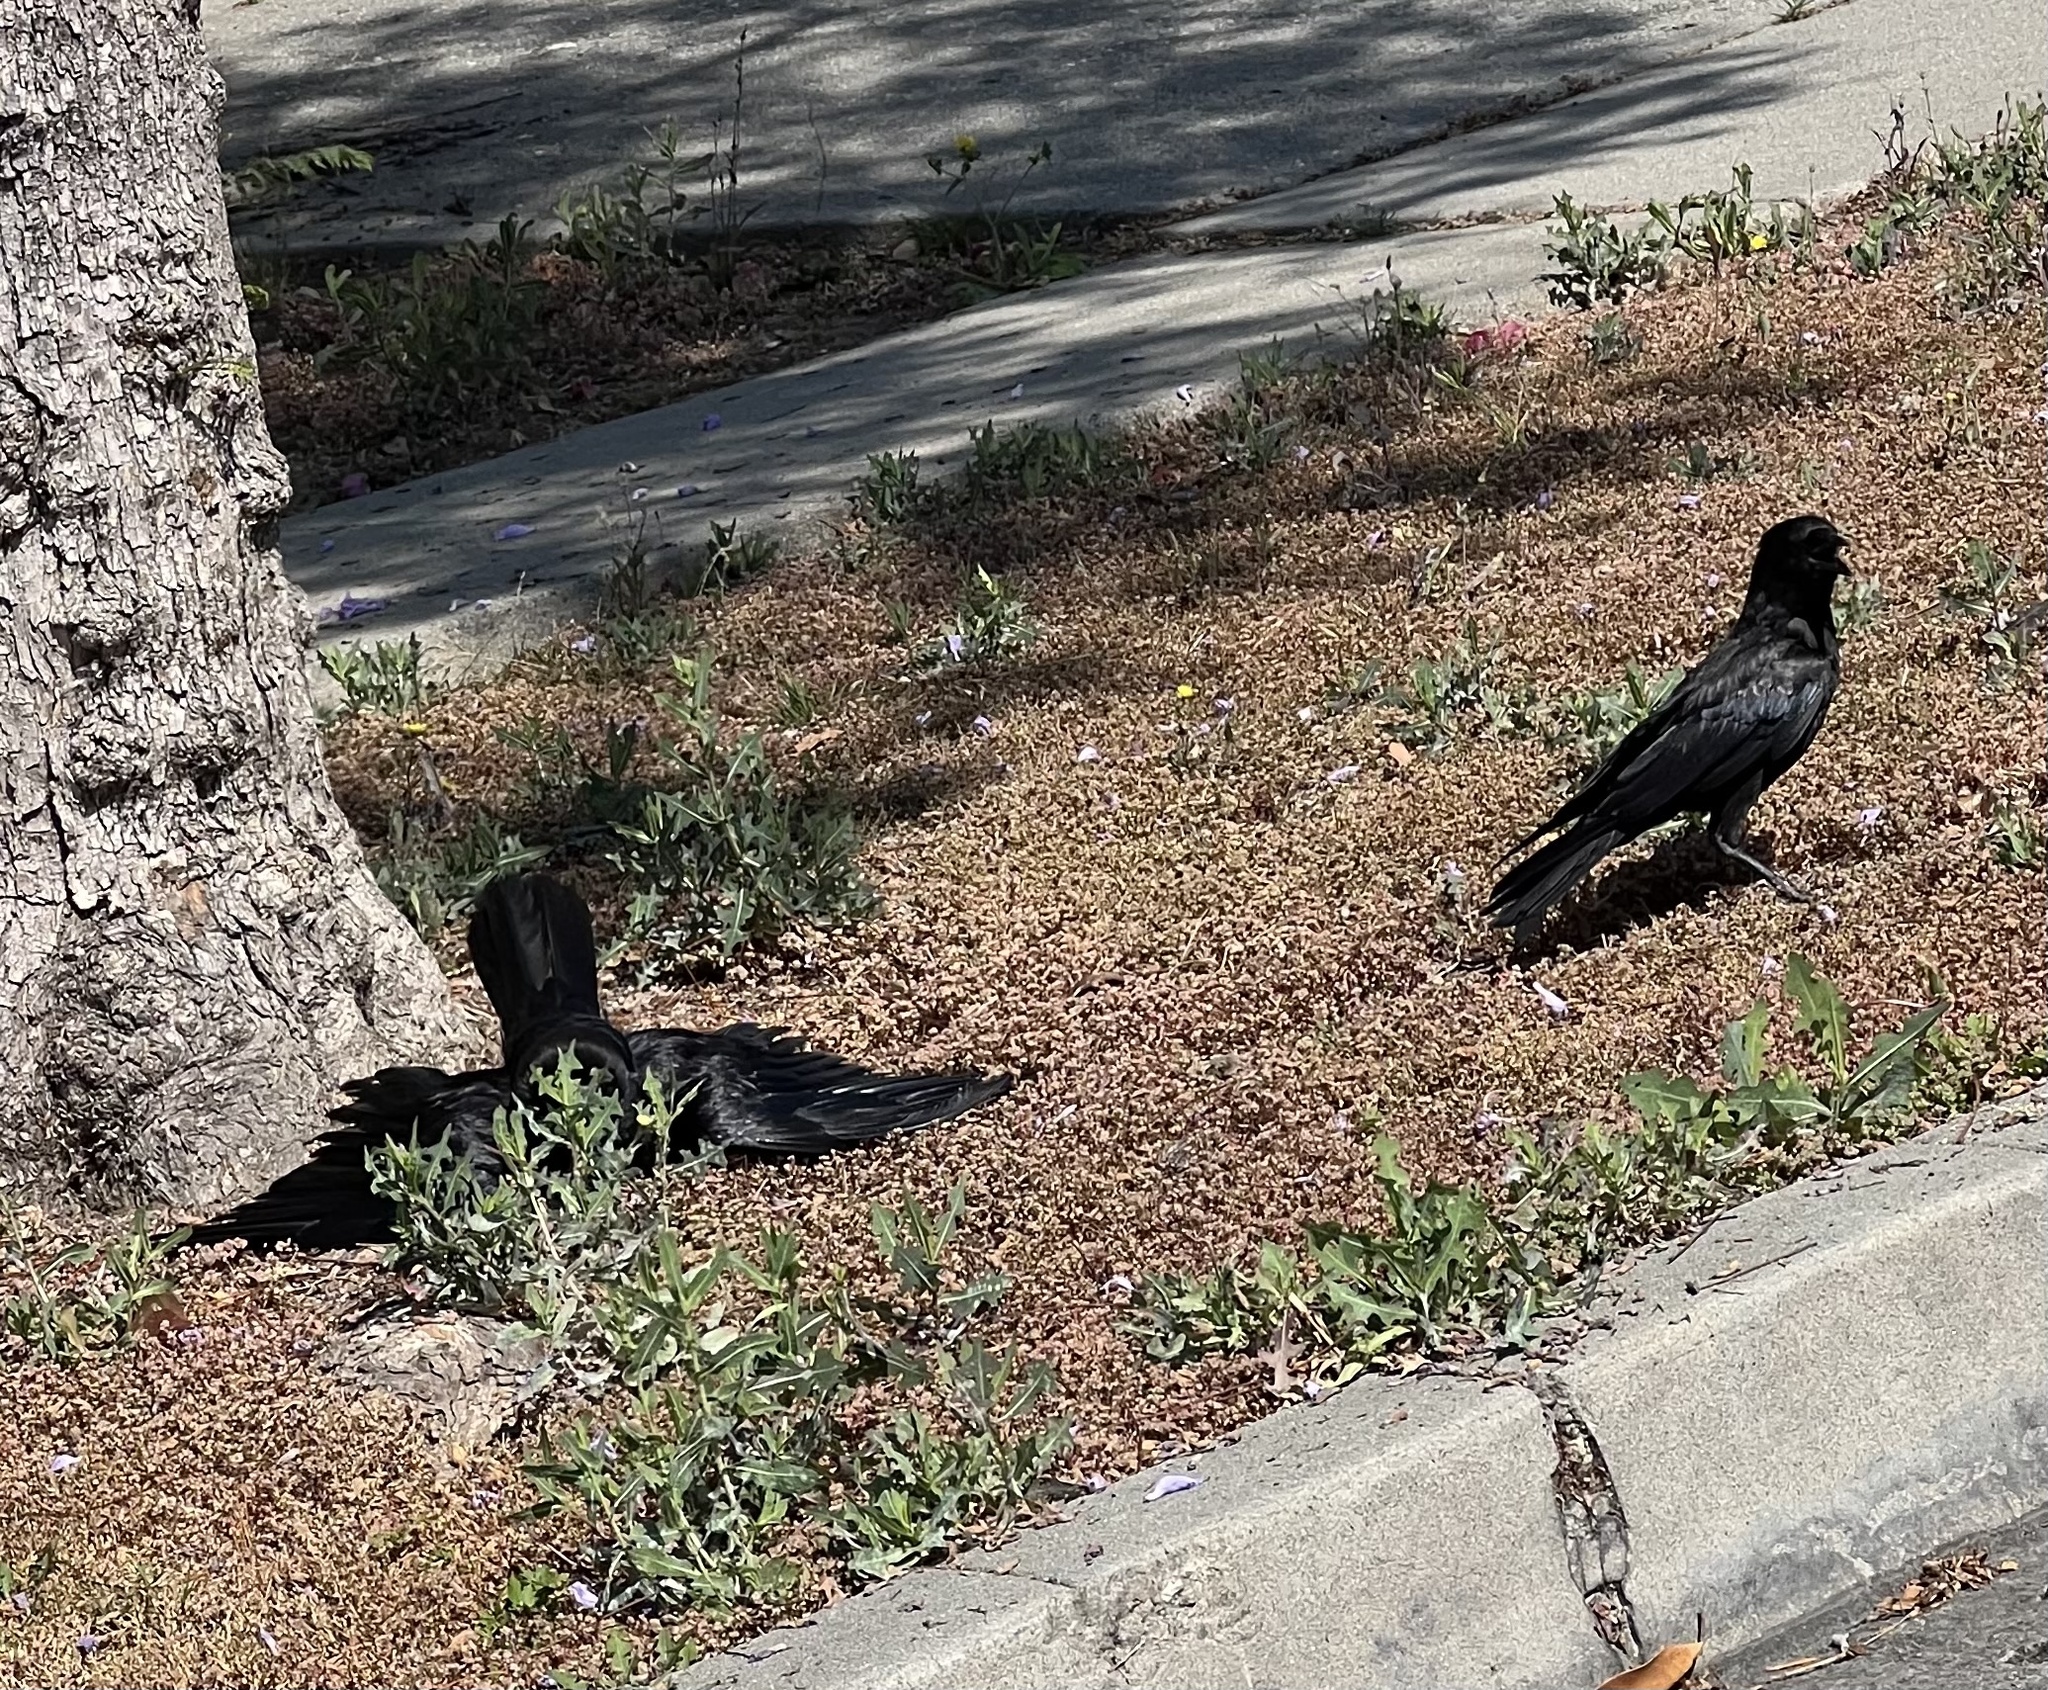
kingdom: Animalia
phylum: Chordata
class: Aves
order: Passeriformes
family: Corvidae
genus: Corvus
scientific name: Corvus brachyrhynchos
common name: American crow
